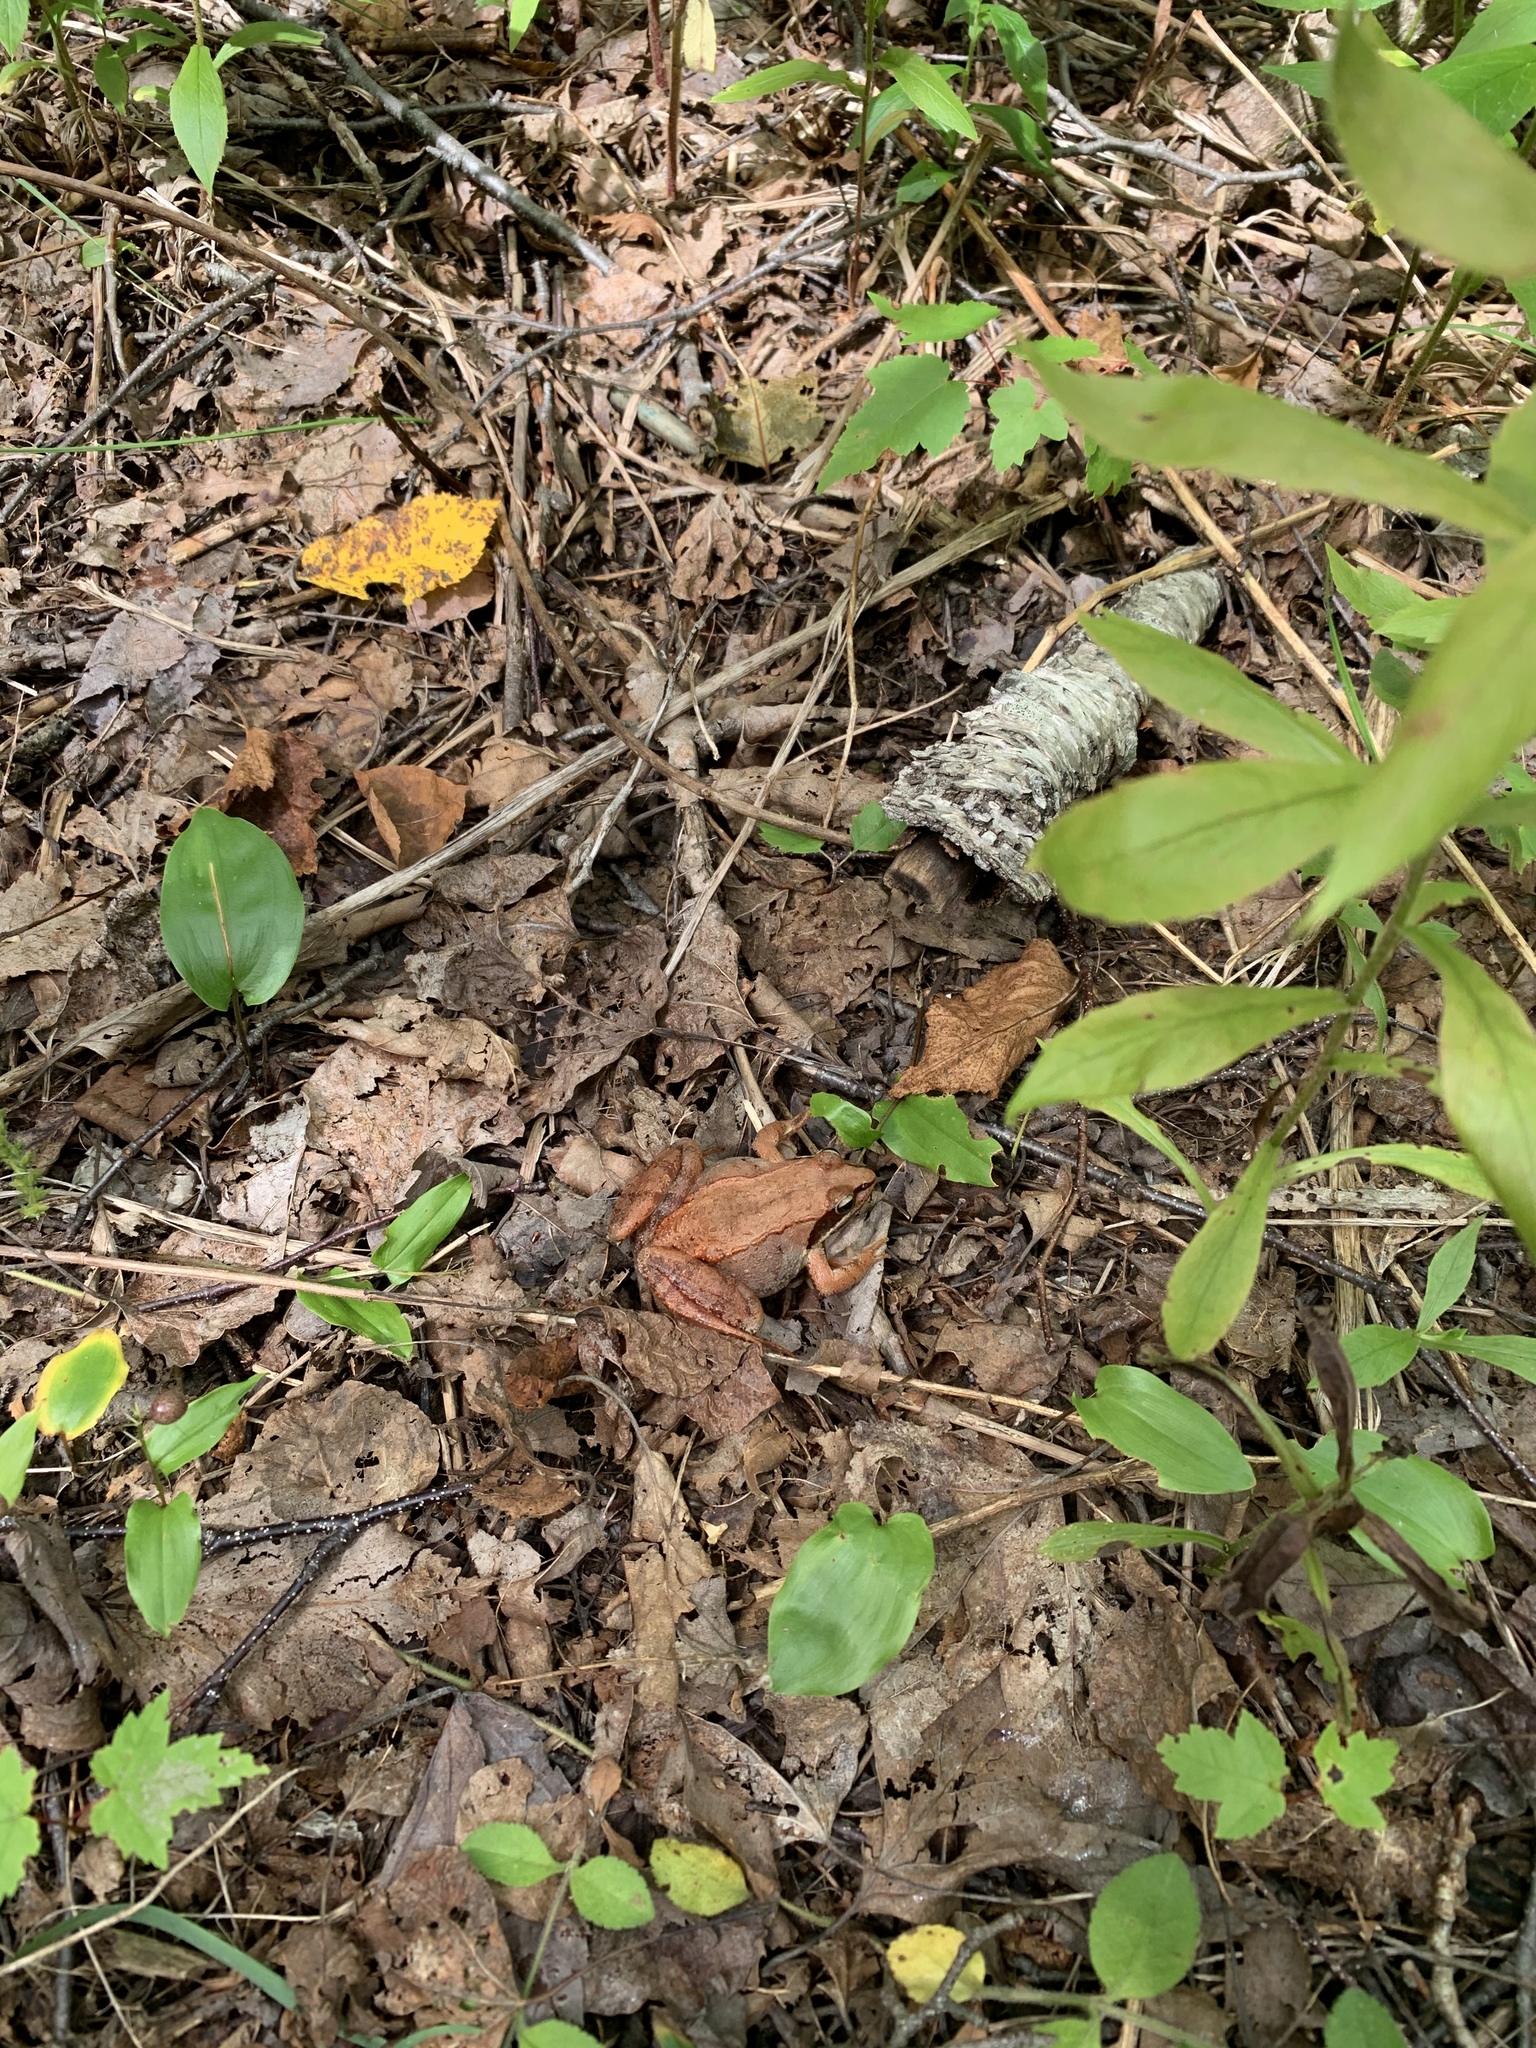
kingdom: Animalia
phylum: Chordata
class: Amphibia
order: Anura
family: Ranidae
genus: Lithobates
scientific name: Lithobates sylvaticus
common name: Wood frog
